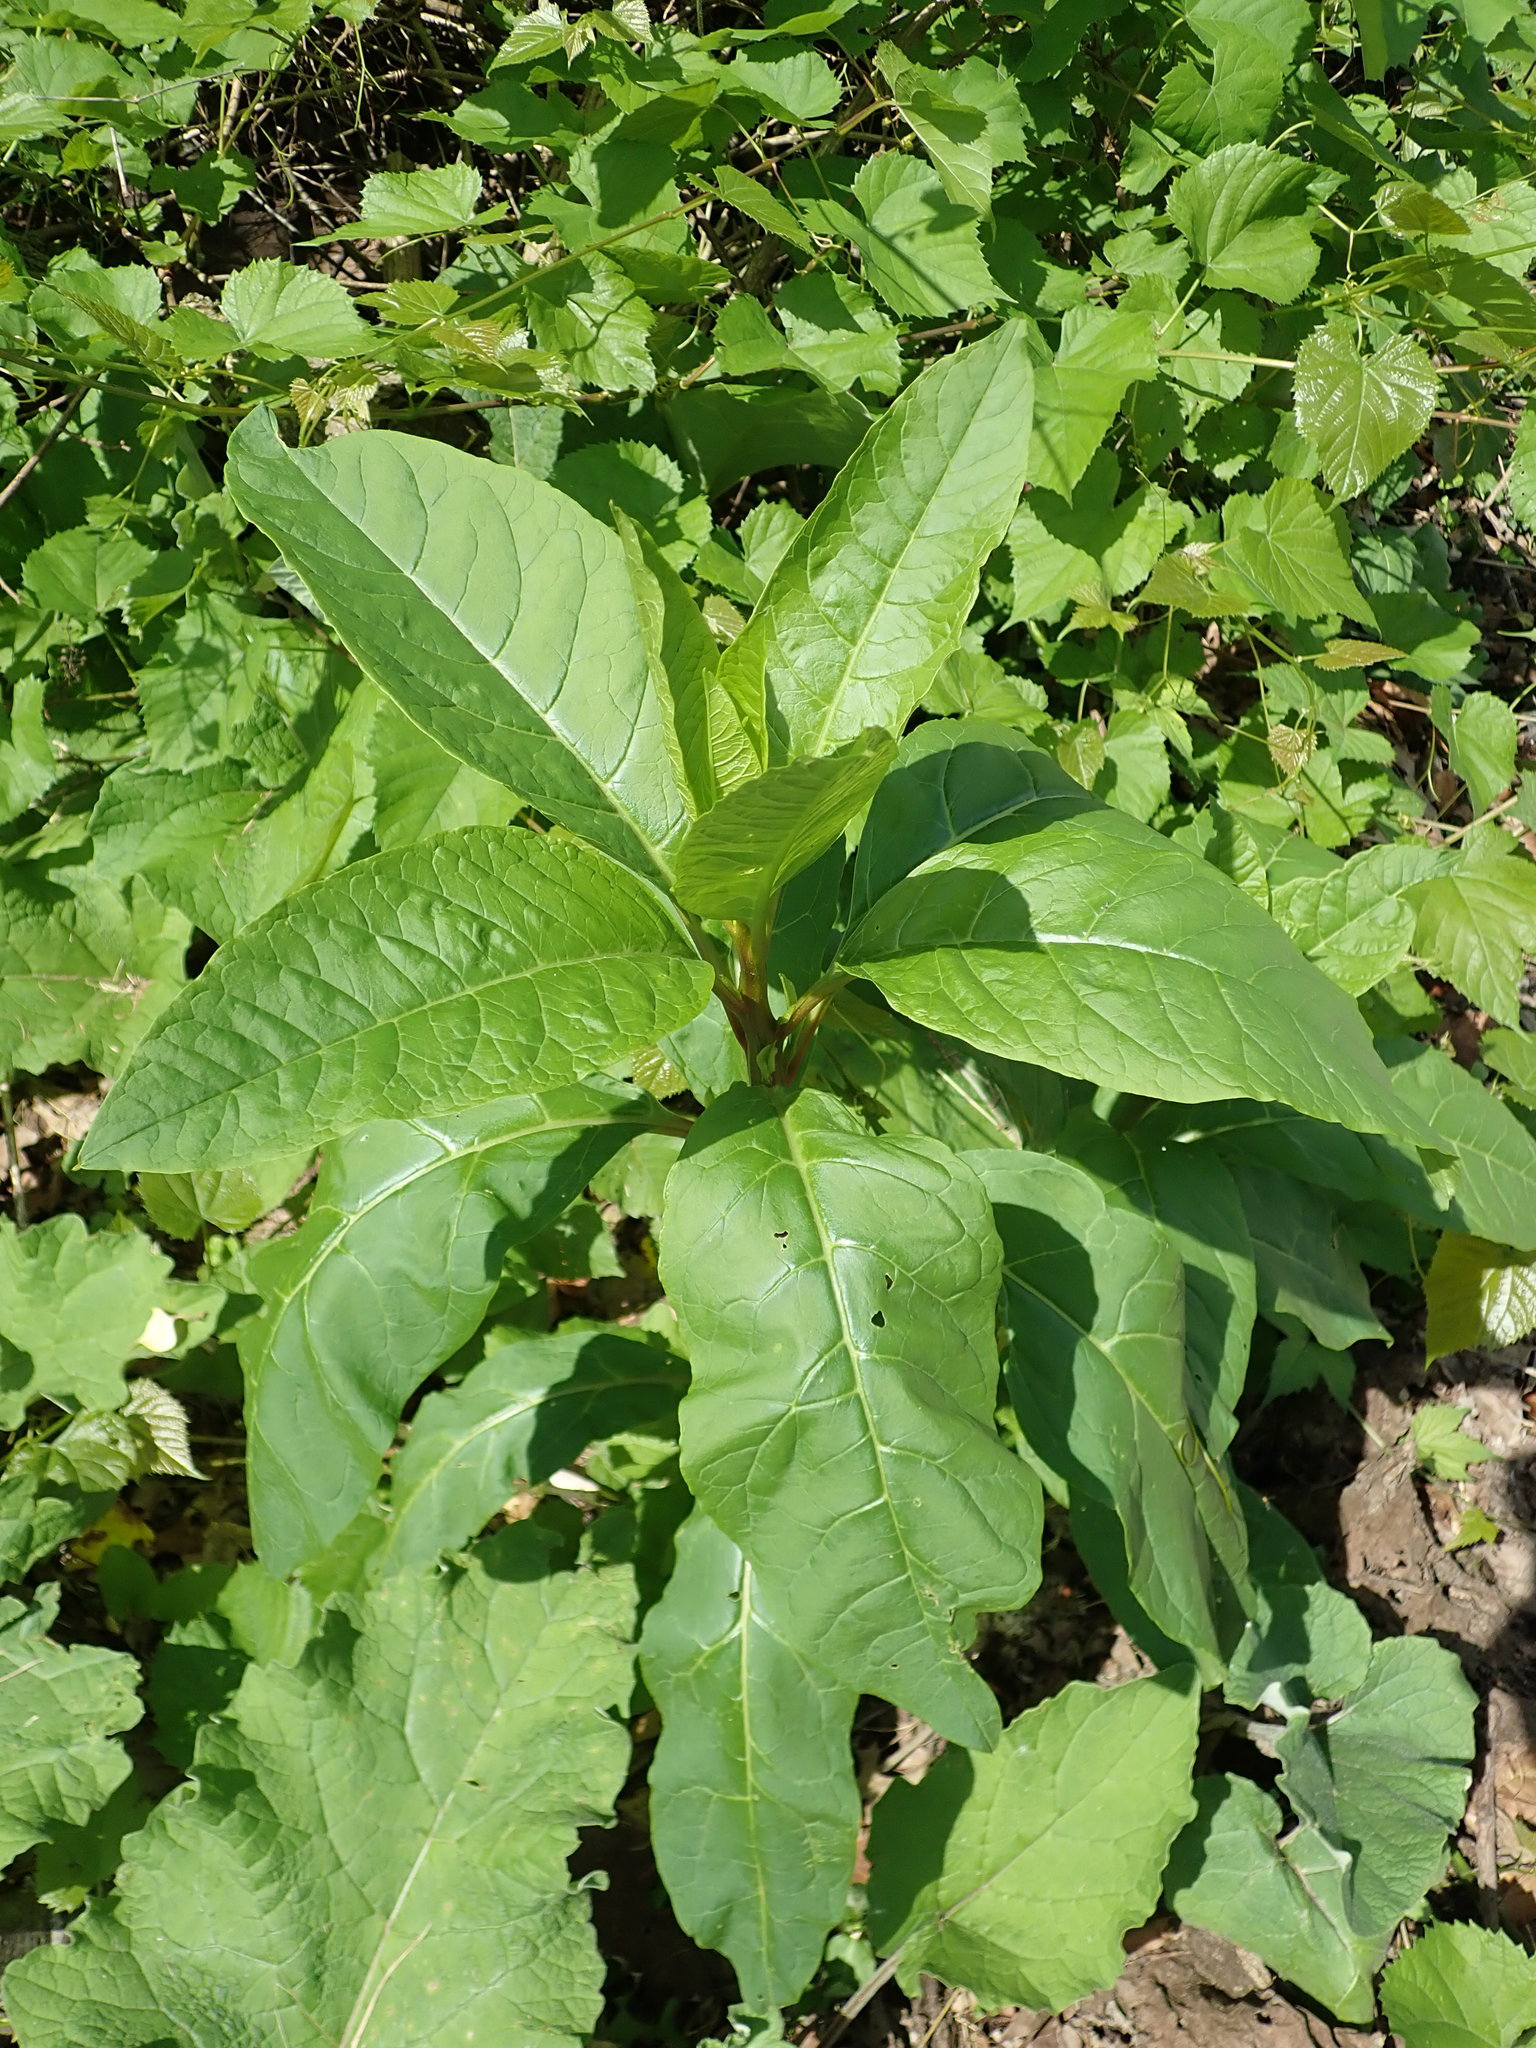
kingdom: Plantae
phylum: Tracheophyta
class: Magnoliopsida
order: Caryophyllales
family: Phytolaccaceae
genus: Phytolacca
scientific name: Phytolacca americana
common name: American pokeweed
